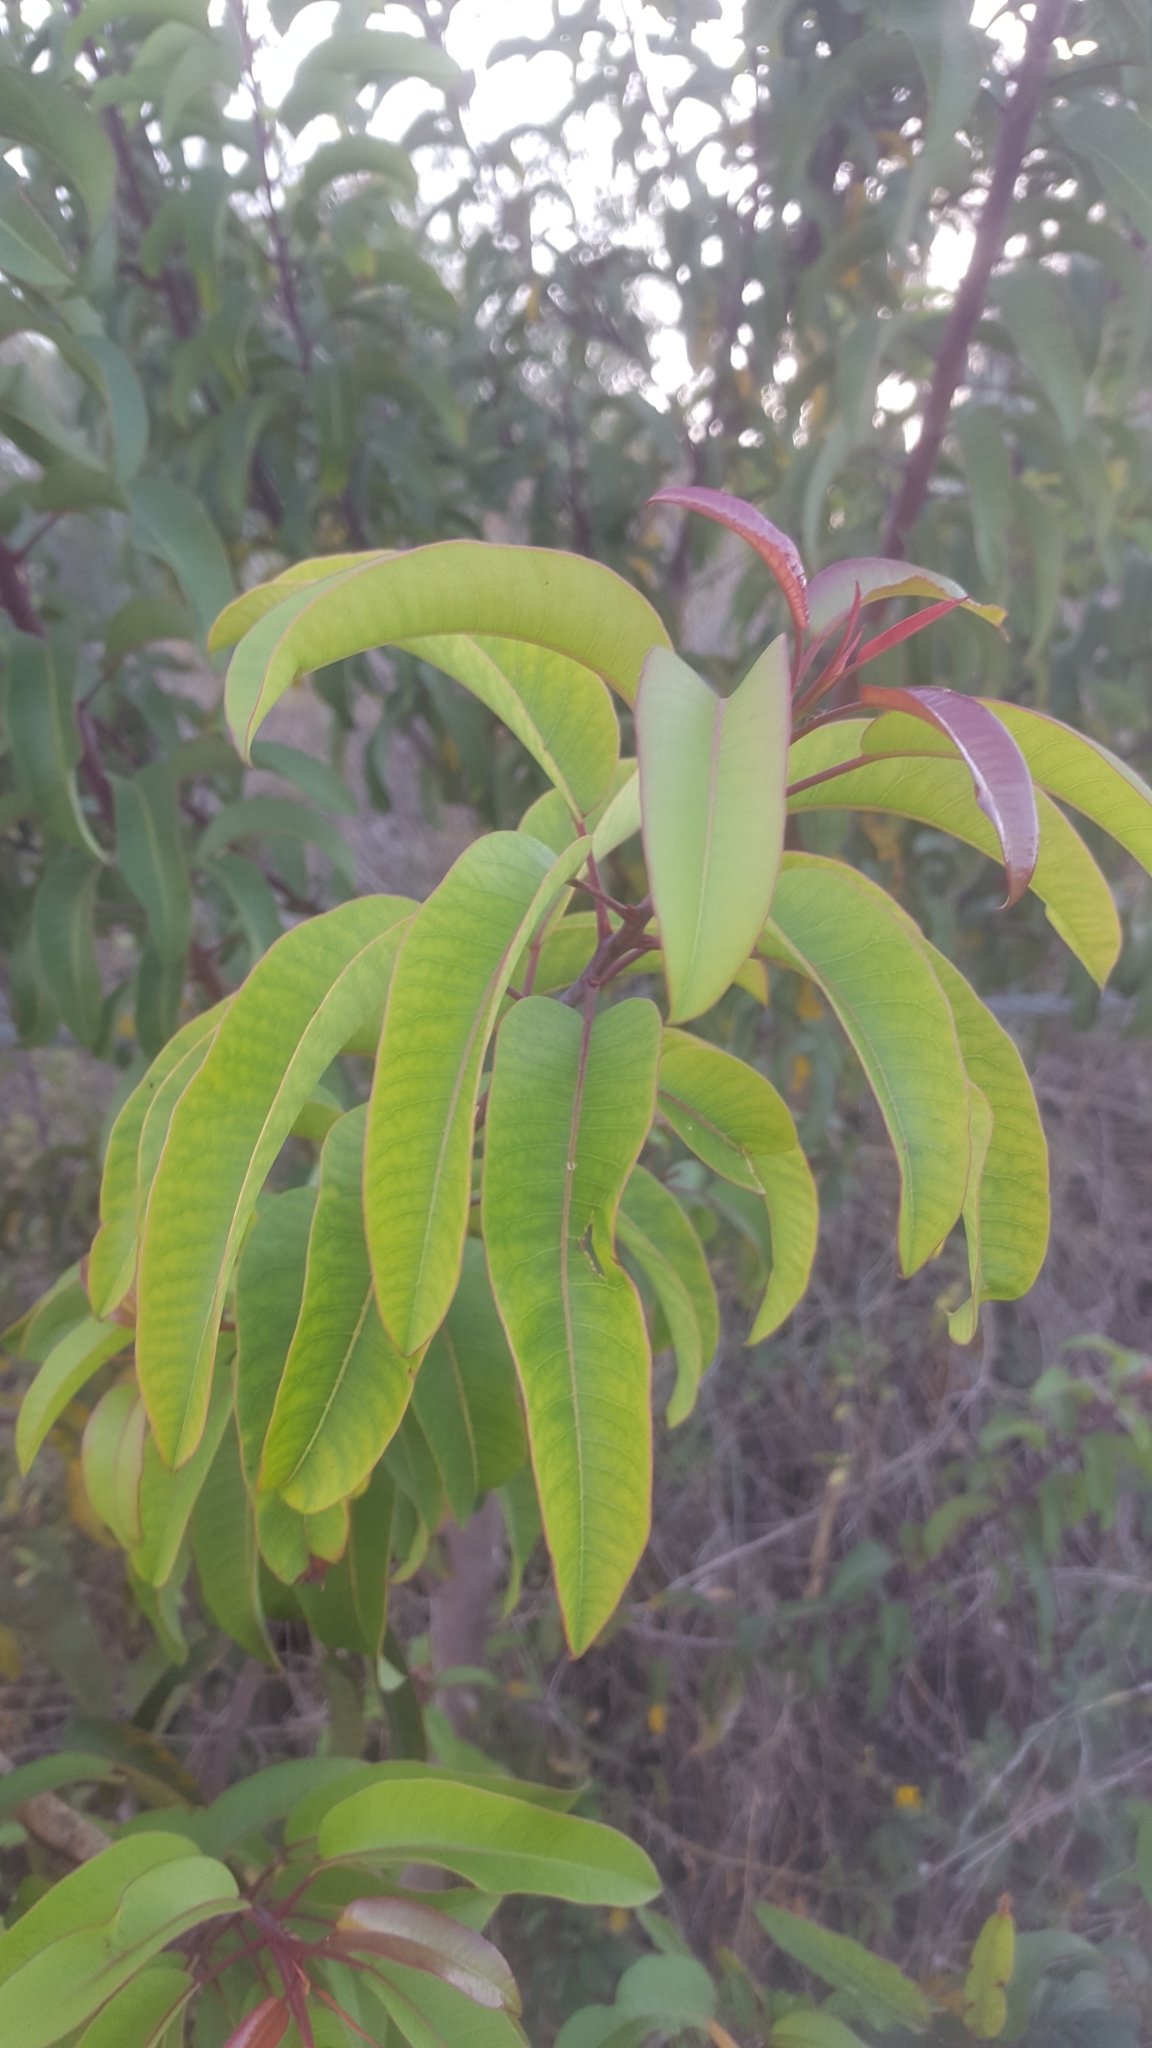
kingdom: Plantae
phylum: Tracheophyta
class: Magnoliopsida
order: Sapindales
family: Anacardiaceae
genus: Malosma
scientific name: Malosma laurina
